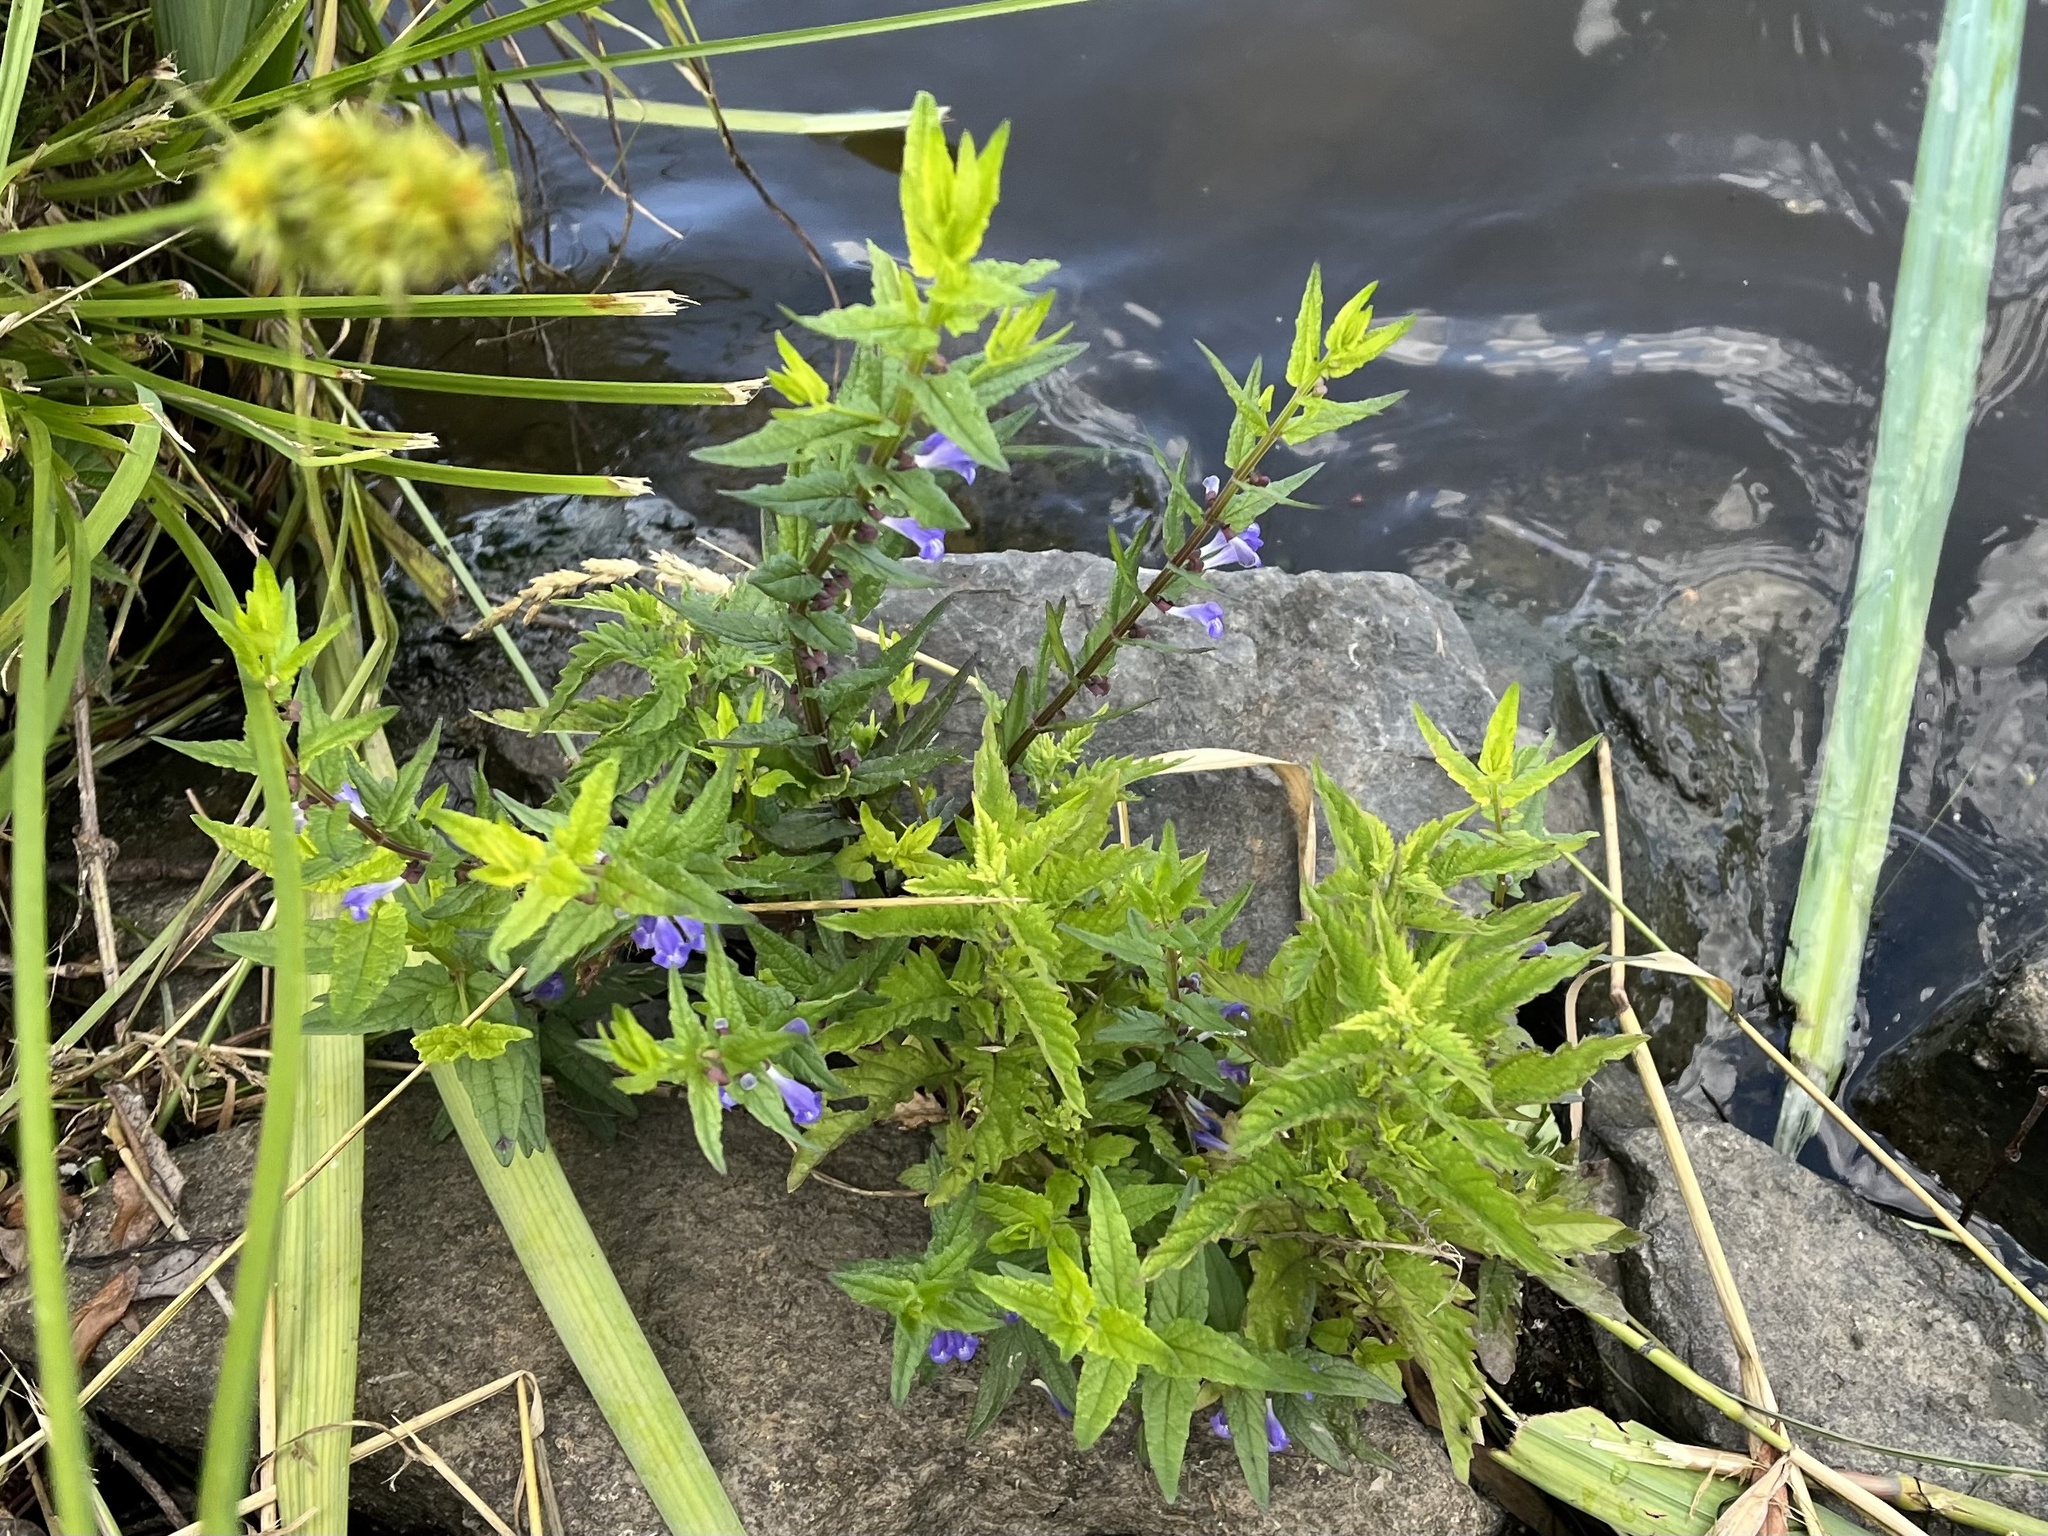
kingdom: Plantae
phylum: Tracheophyta
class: Magnoliopsida
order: Lamiales
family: Lamiaceae
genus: Scutellaria
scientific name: Scutellaria galericulata
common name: Skullcap
